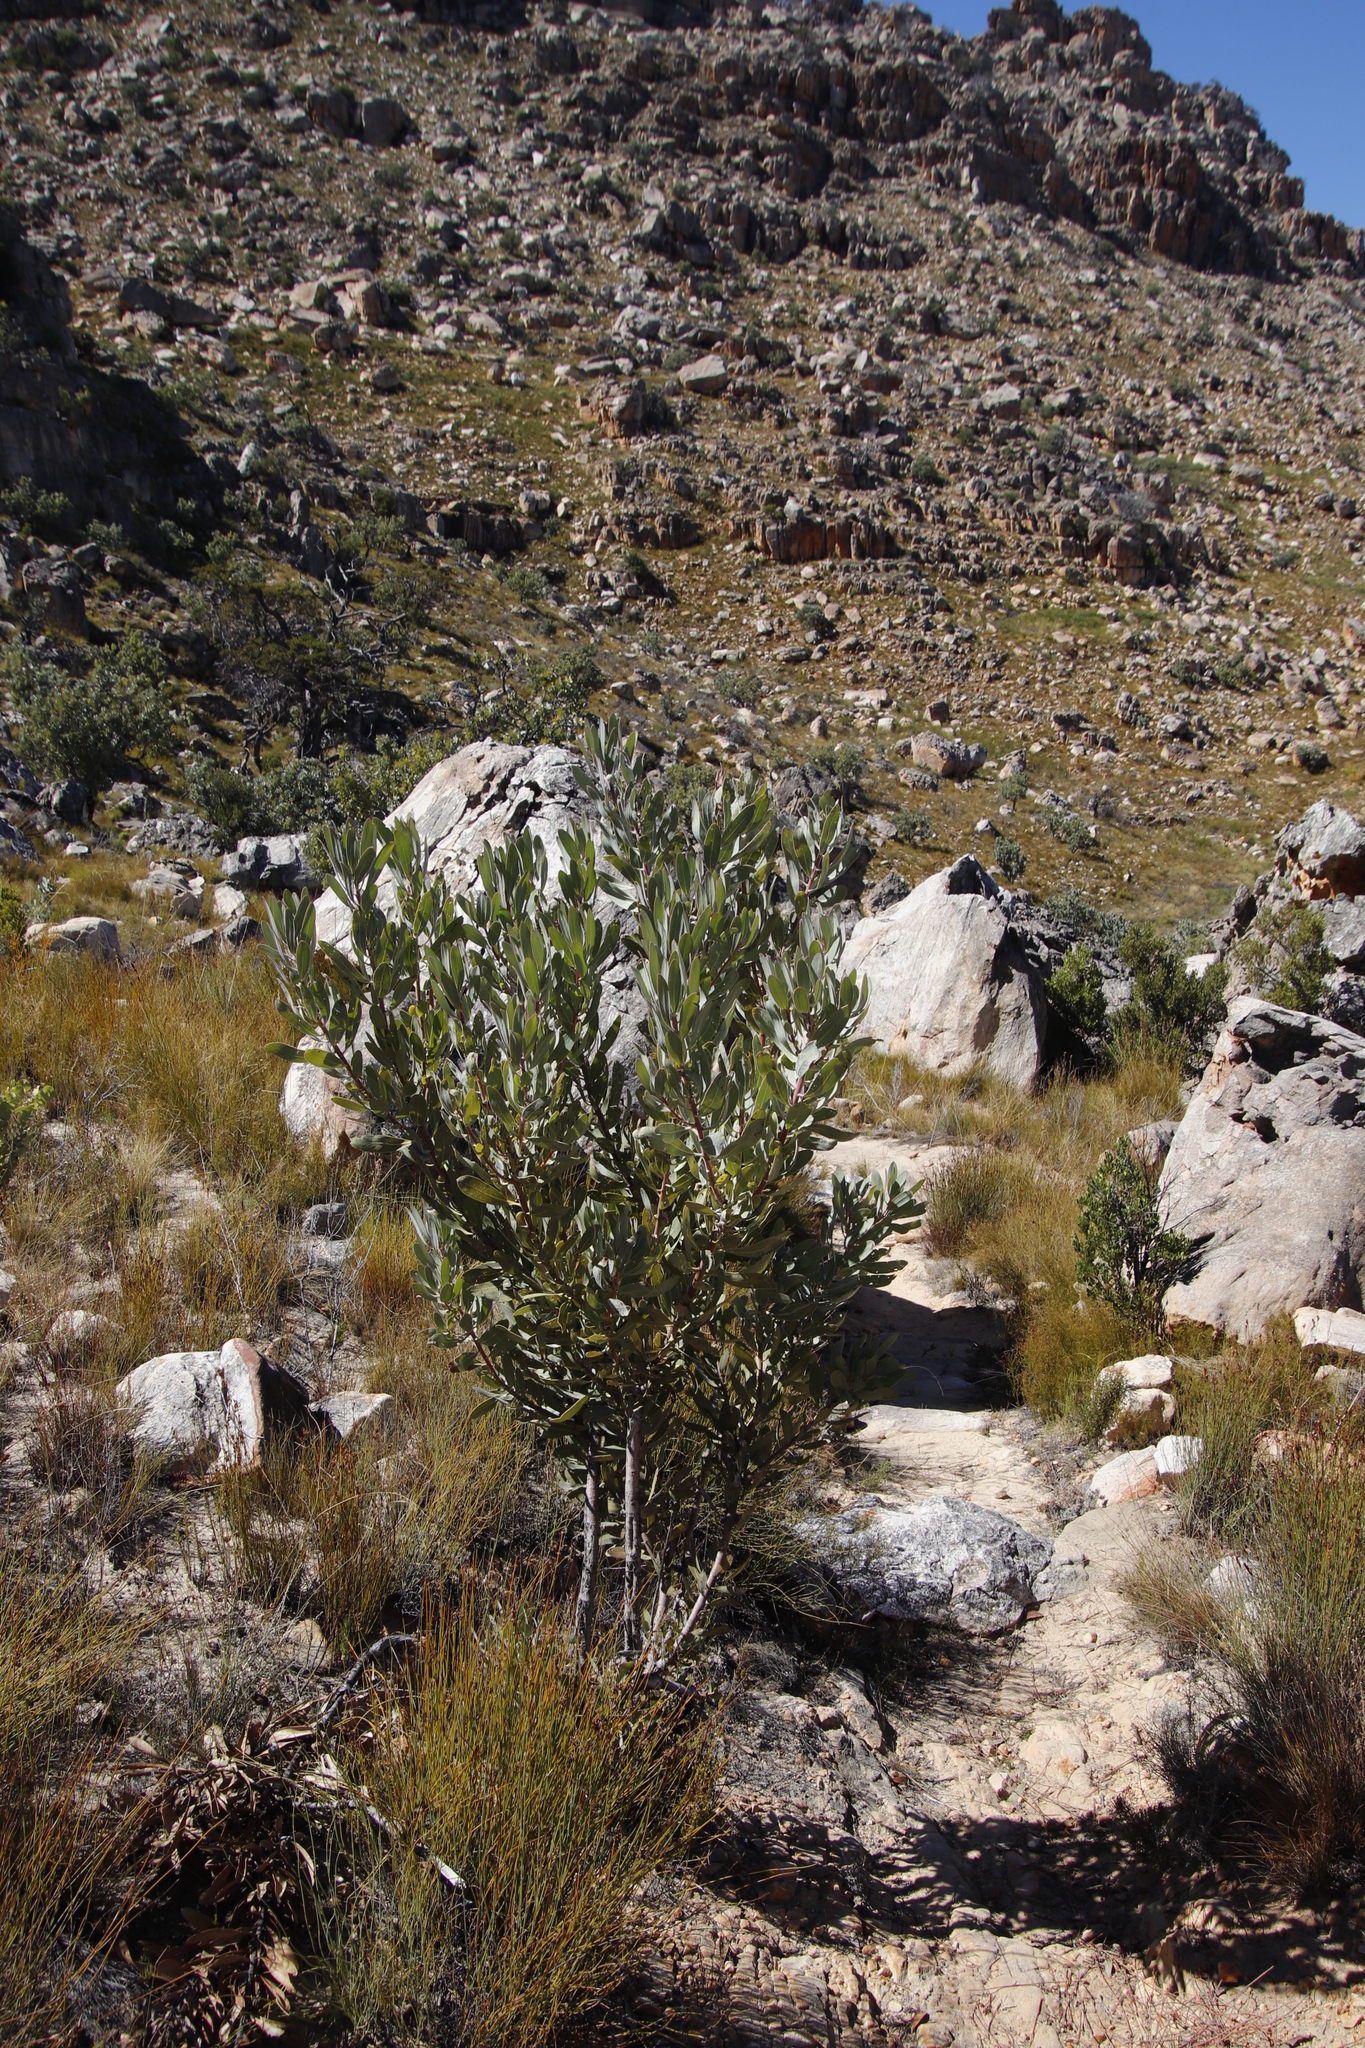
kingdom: Plantae
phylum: Tracheophyta
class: Magnoliopsida
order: Proteales
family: Proteaceae
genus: Protea
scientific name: Protea laurifolia
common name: Grey-leaf sugarbsh
